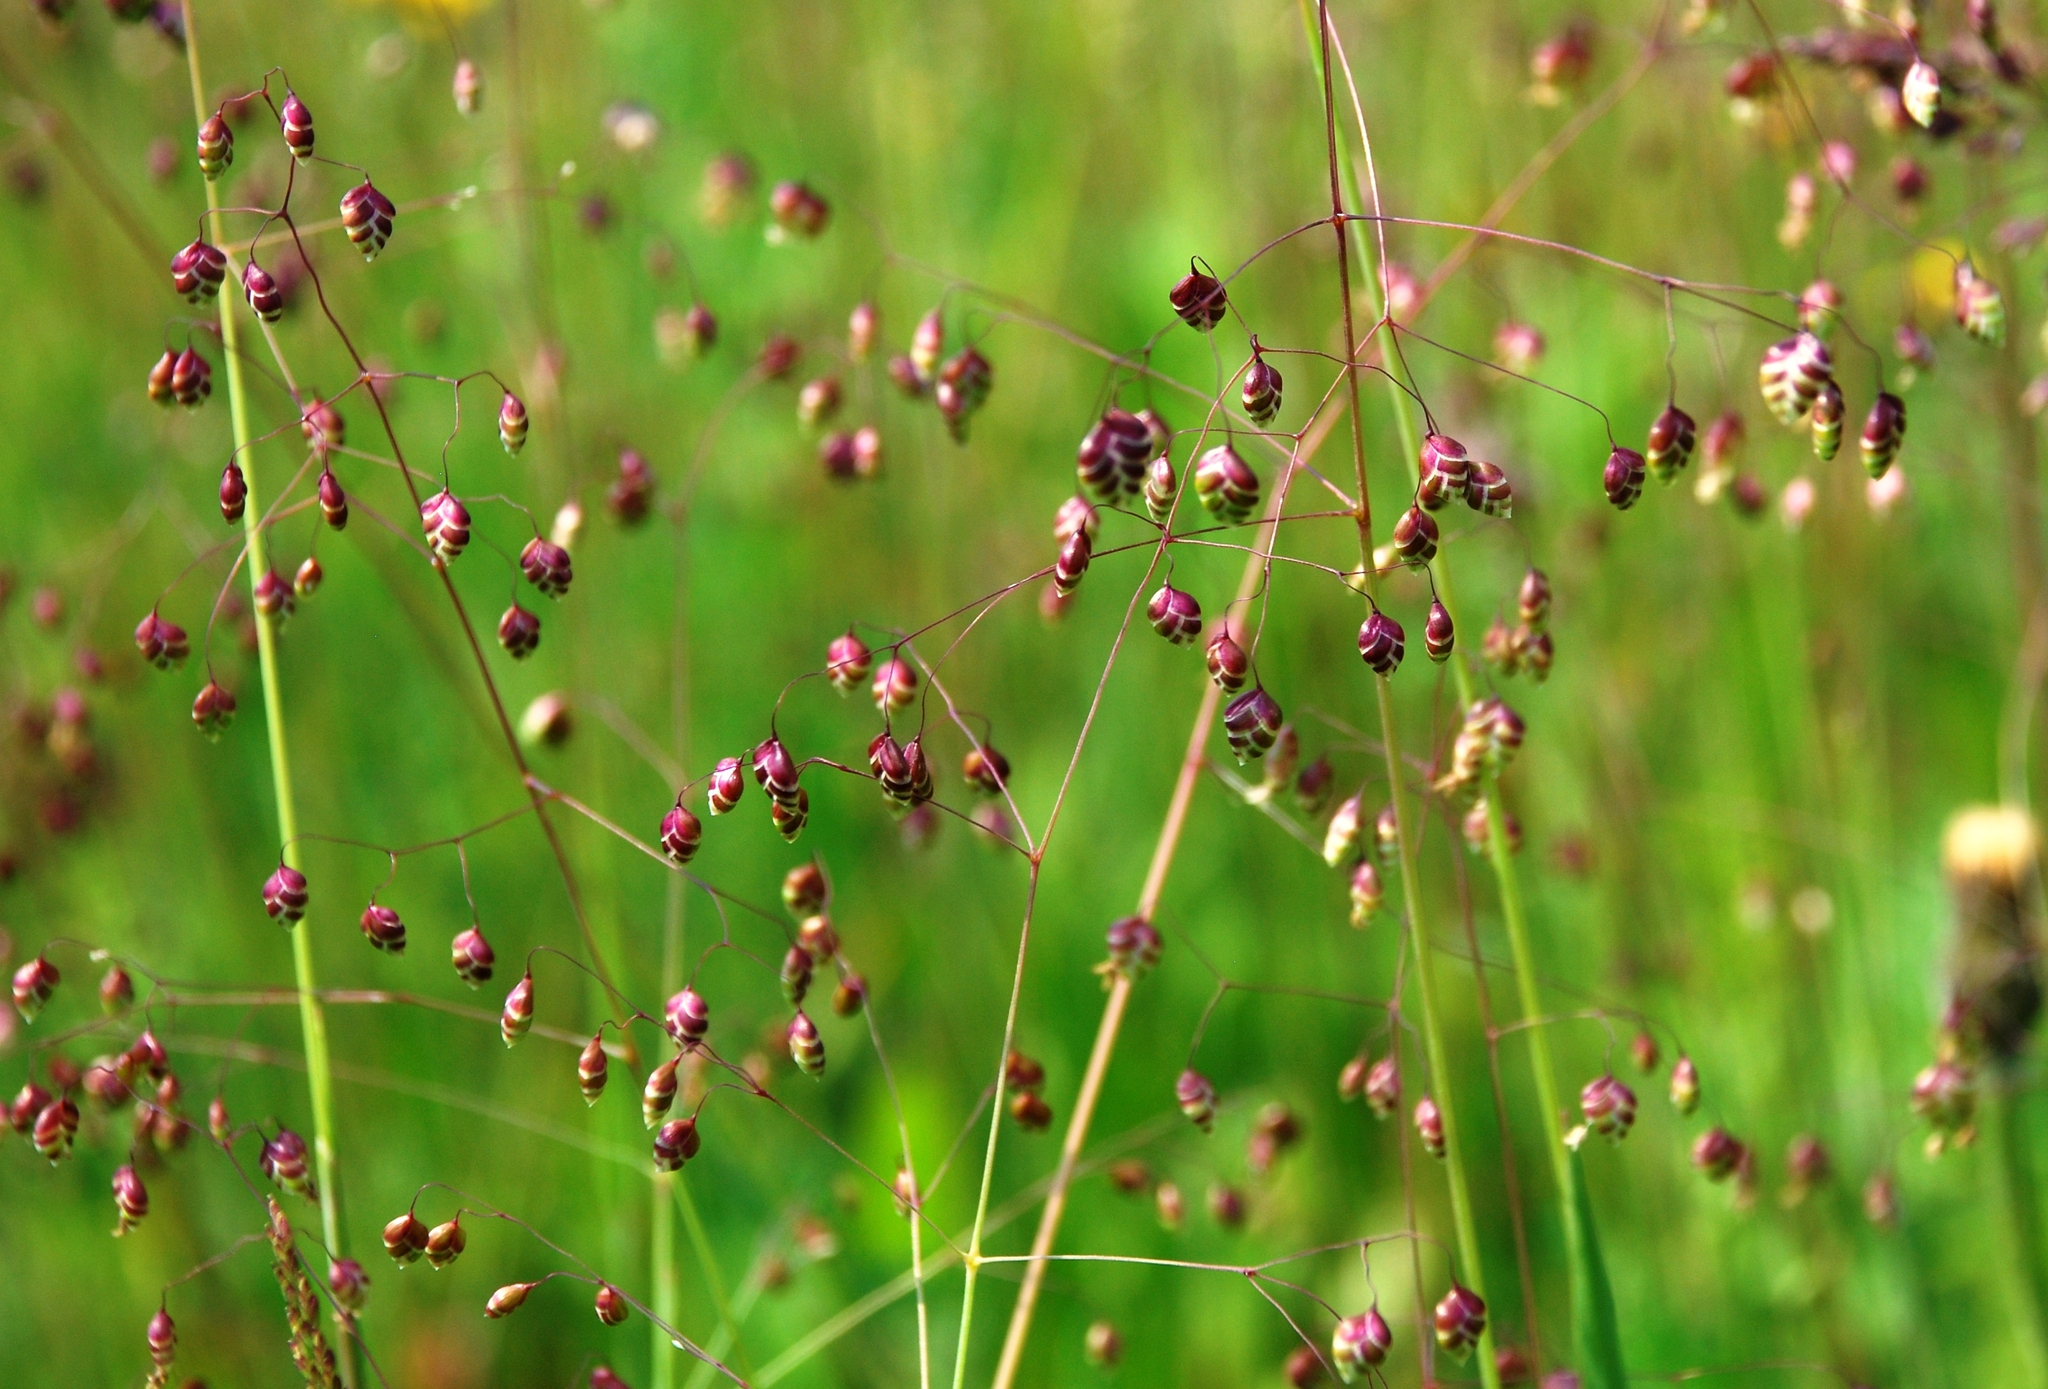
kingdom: Plantae
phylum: Tracheophyta
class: Liliopsida
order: Poales
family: Poaceae
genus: Briza
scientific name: Briza media
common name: Quaking grass
